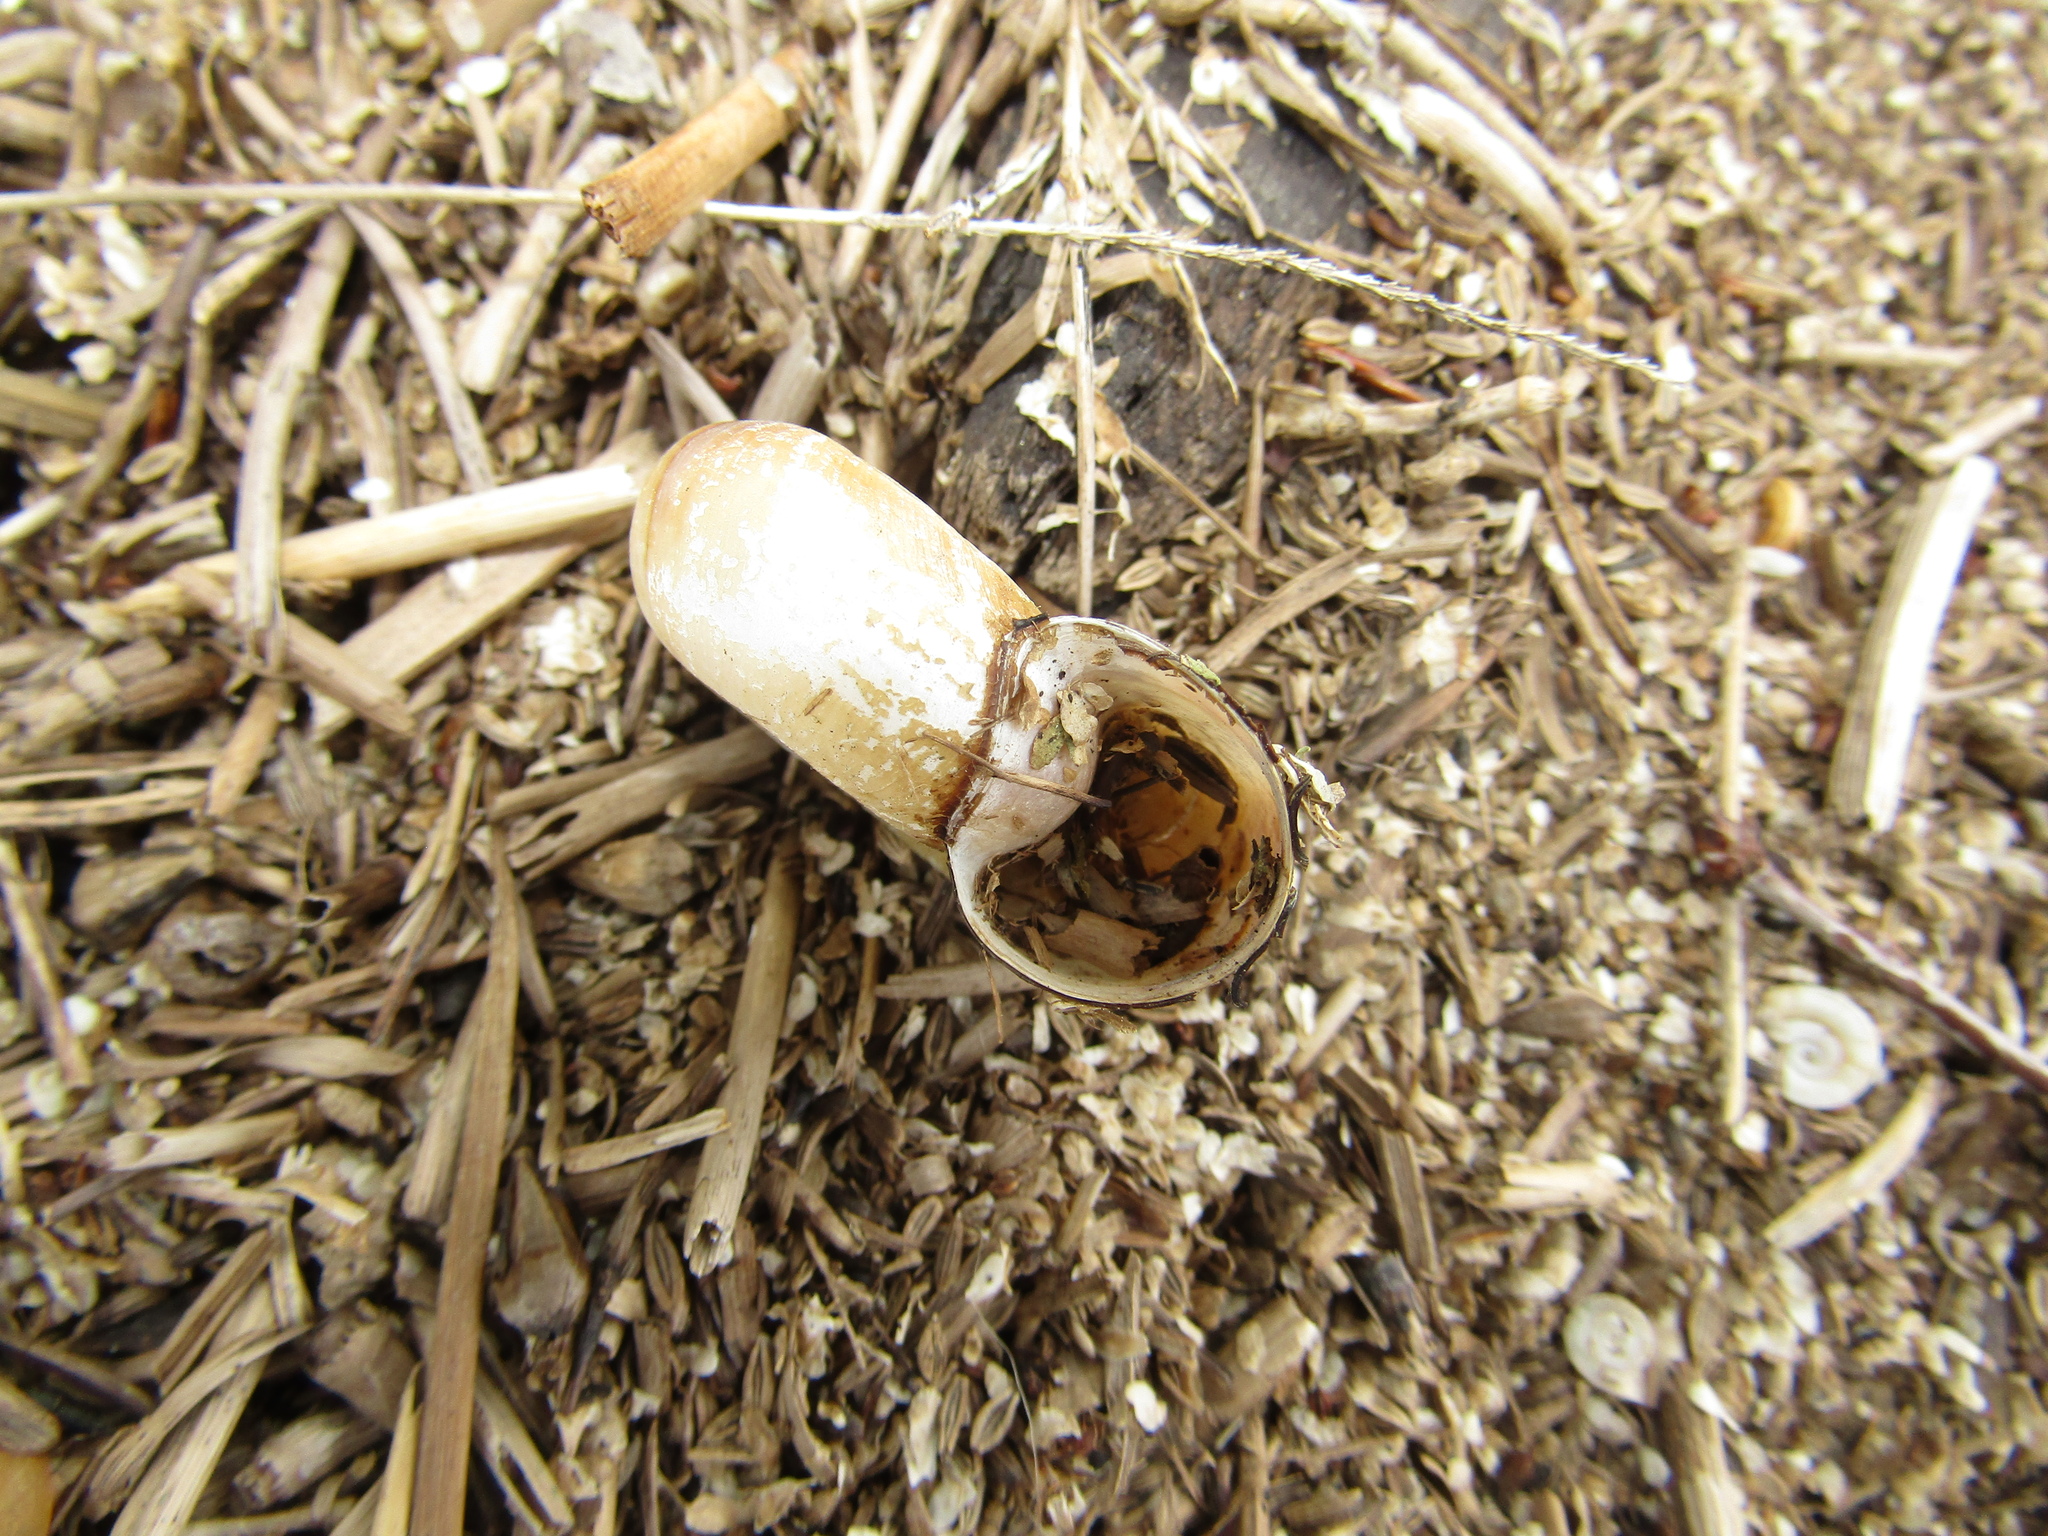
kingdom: Animalia
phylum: Mollusca
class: Gastropoda
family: Planorbidae
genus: Planorbarius
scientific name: Planorbarius corneus
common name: Great ramshorn
